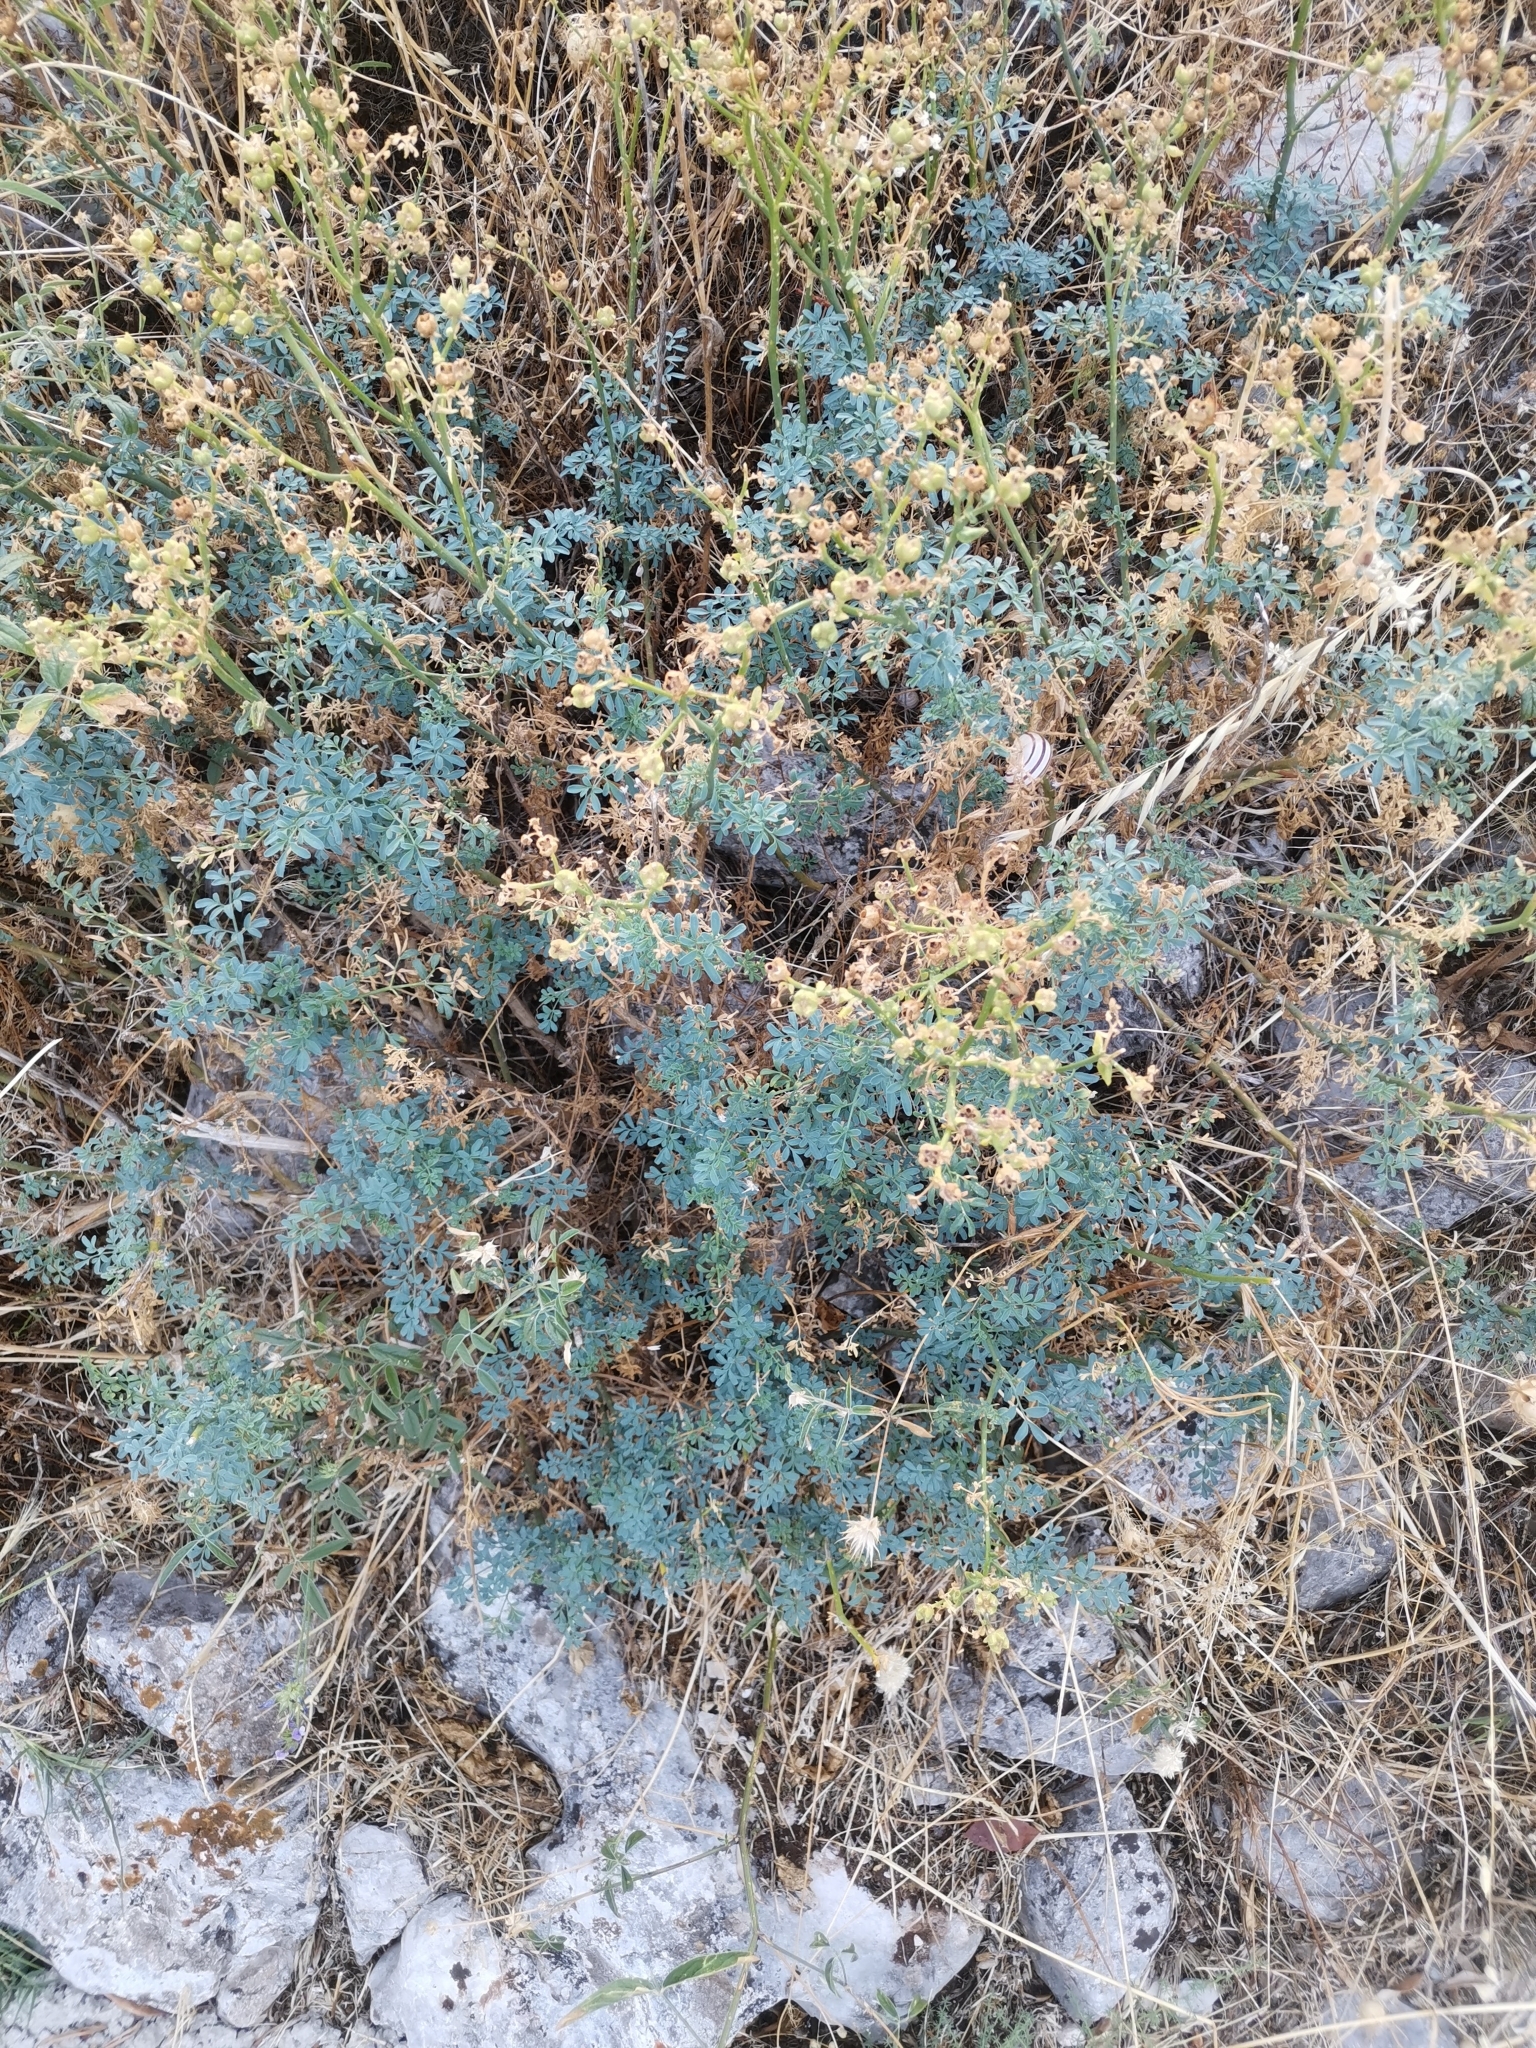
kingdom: Plantae
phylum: Tracheophyta
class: Magnoliopsida
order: Sapindales
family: Rutaceae
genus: Ruta
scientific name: Ruta chalepensis
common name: Fringed rue
